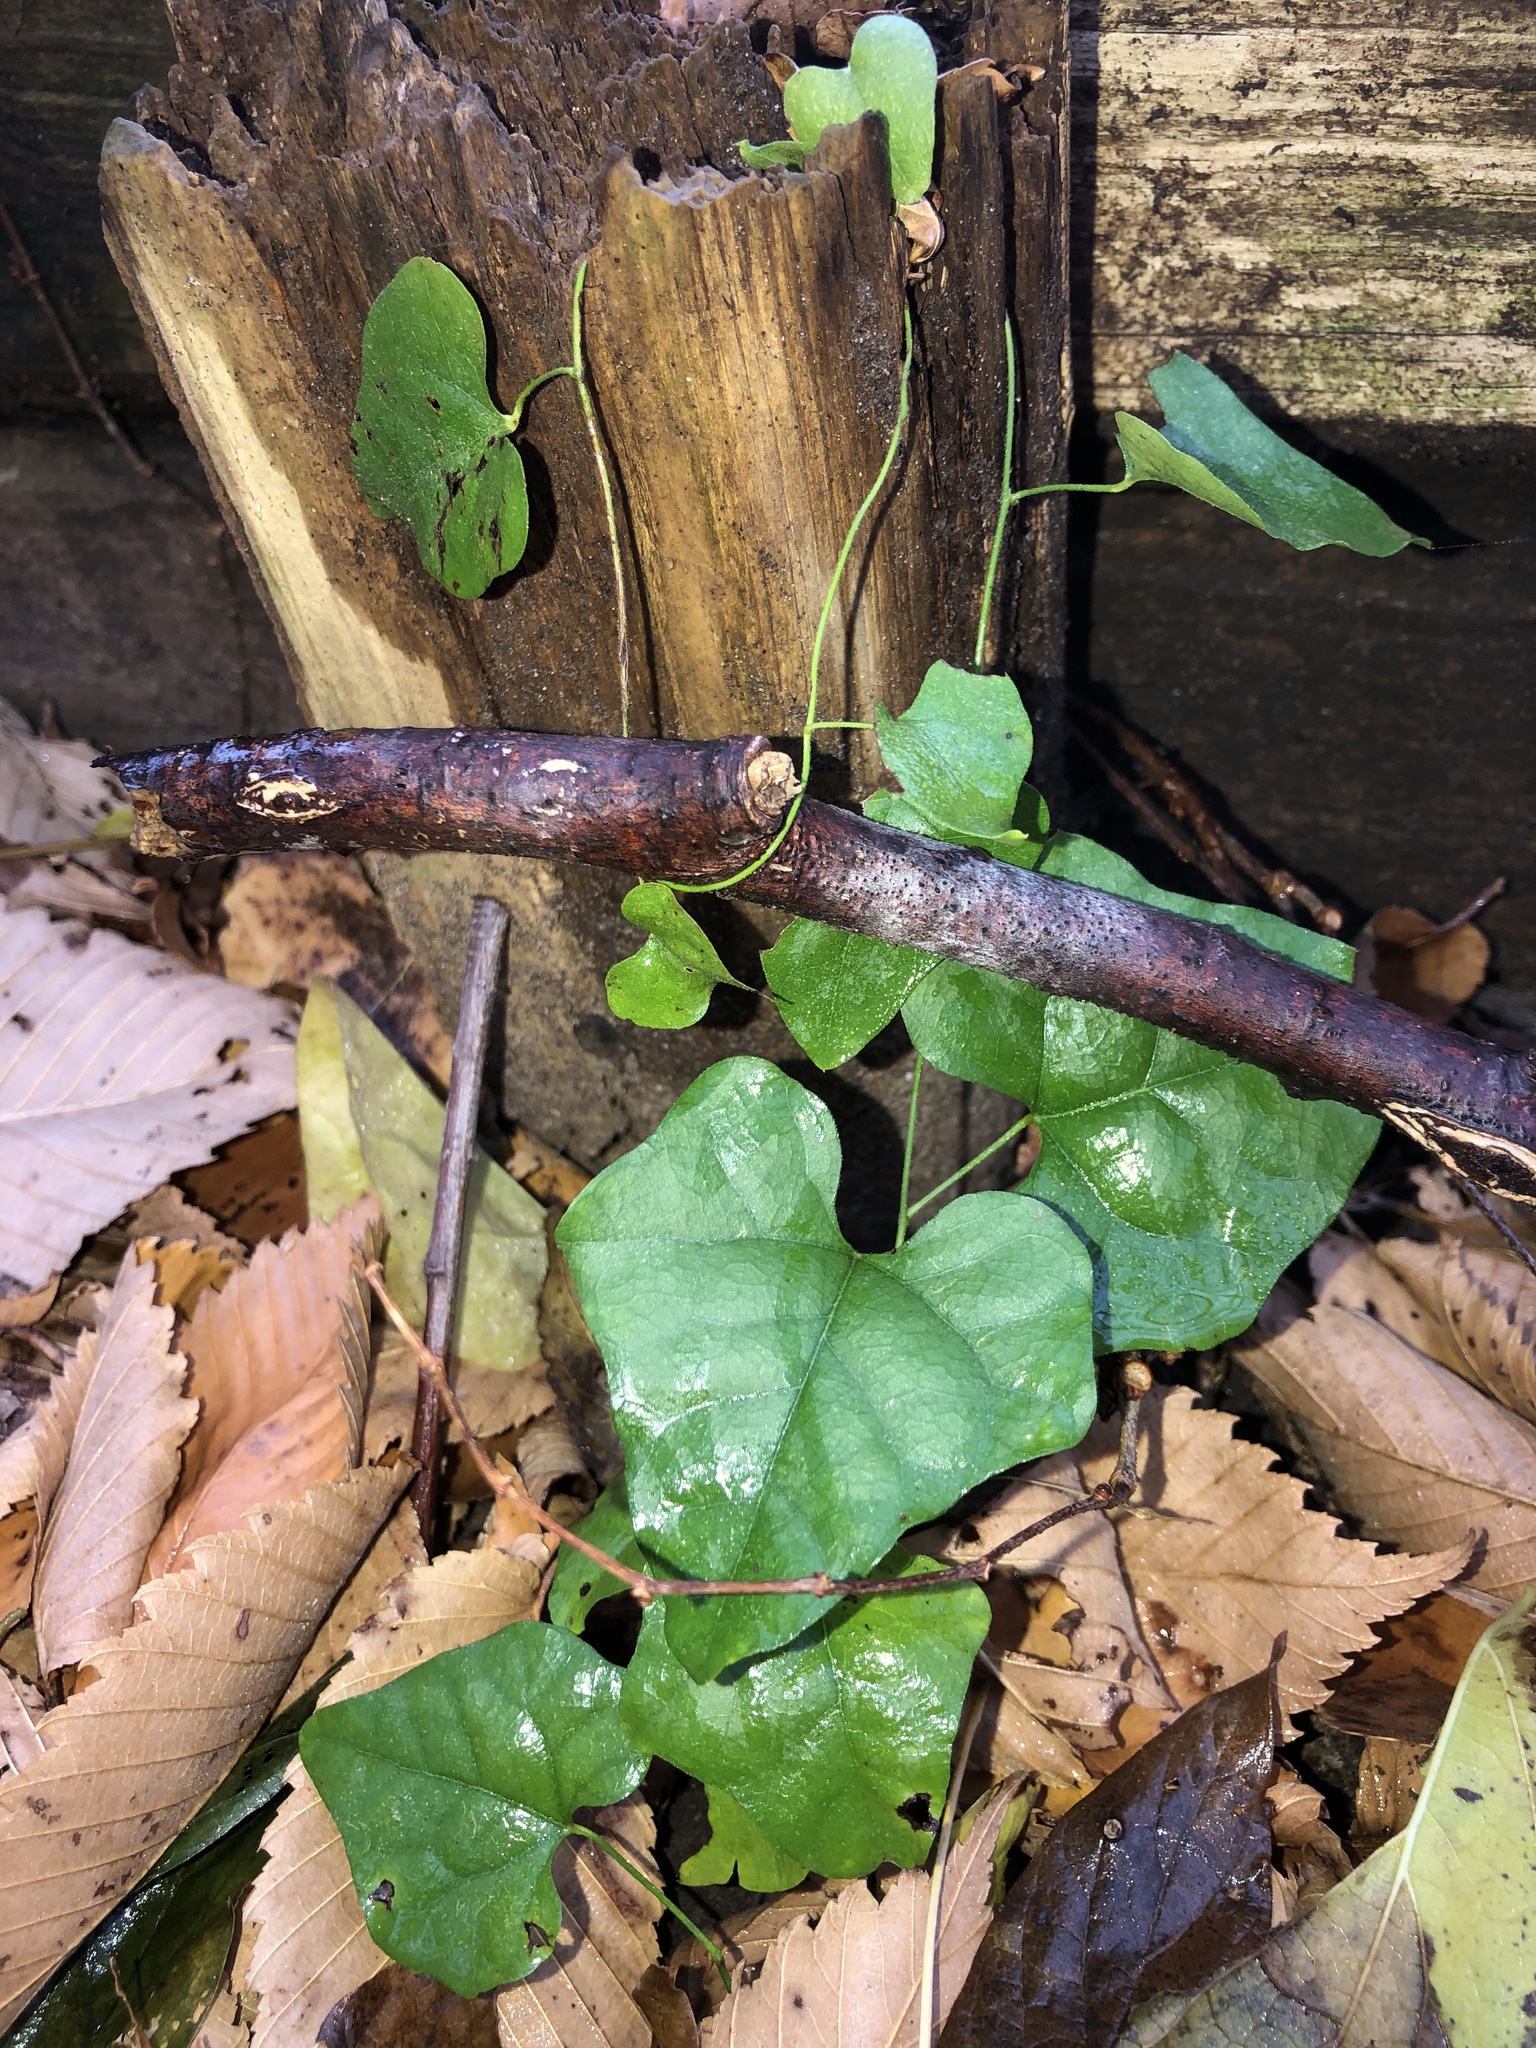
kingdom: Plantae
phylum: Tracheophyta
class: Magnoliopsida
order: Ranunculales
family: Menispermaceae
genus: Cocculus
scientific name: Cocculus carolinus
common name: Carolina moonseed
